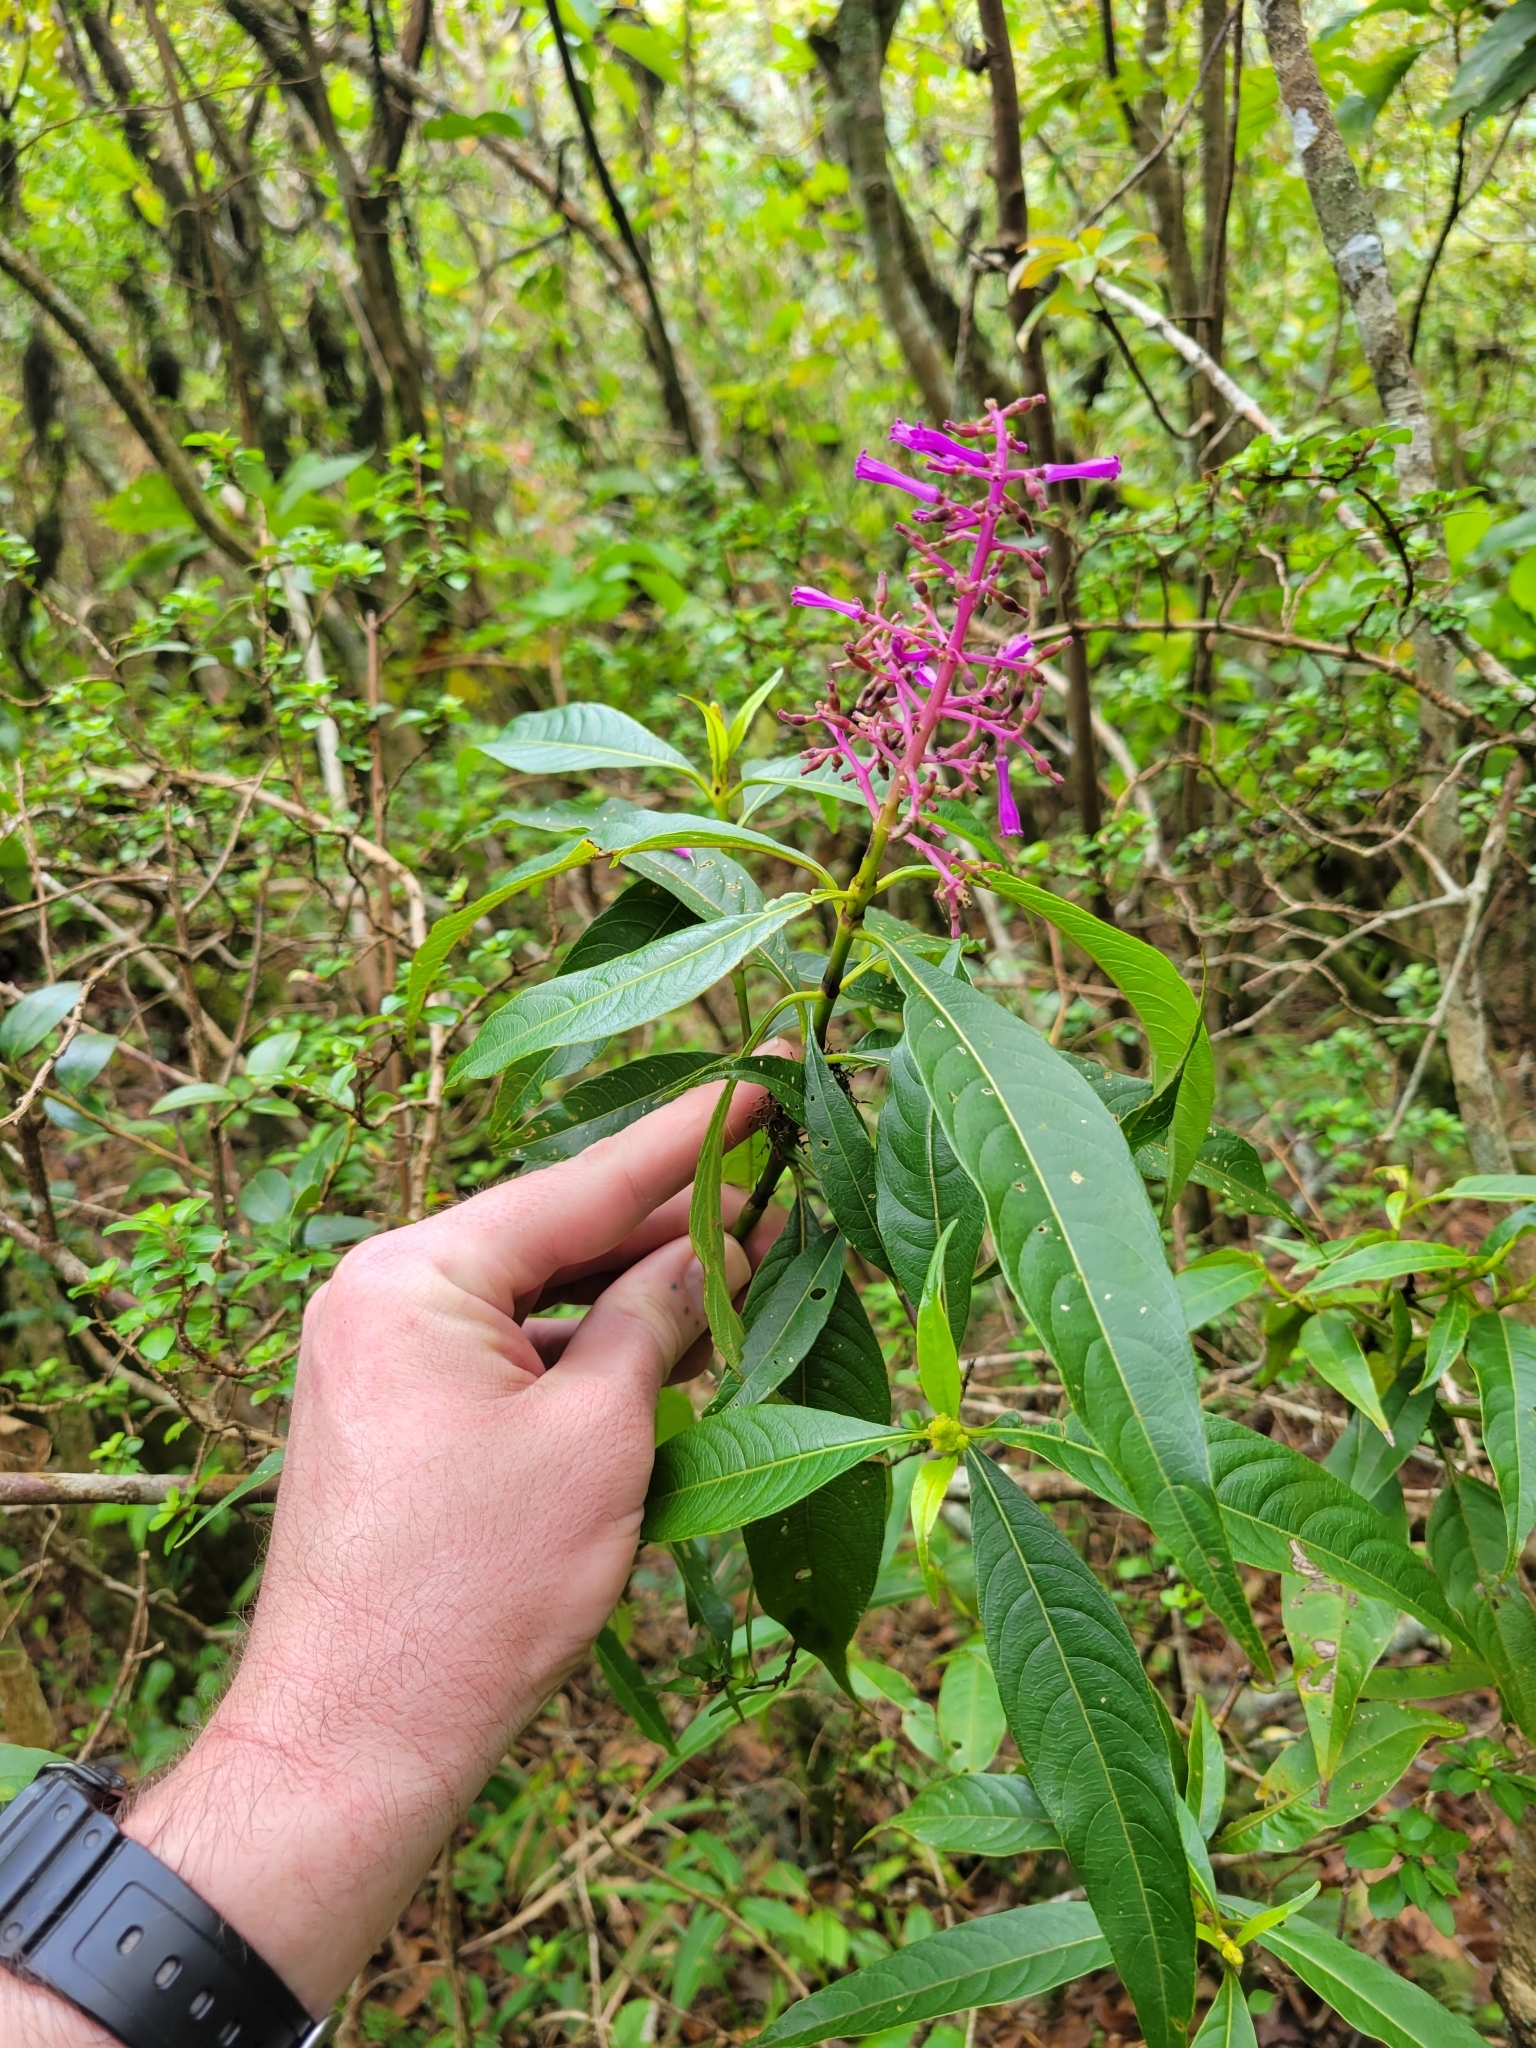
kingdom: Plantae
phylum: Tracheophyta
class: Magnoliopsida
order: Gentianales
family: Rubiaceae
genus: Palicourea
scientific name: Palicourea angustifolia
